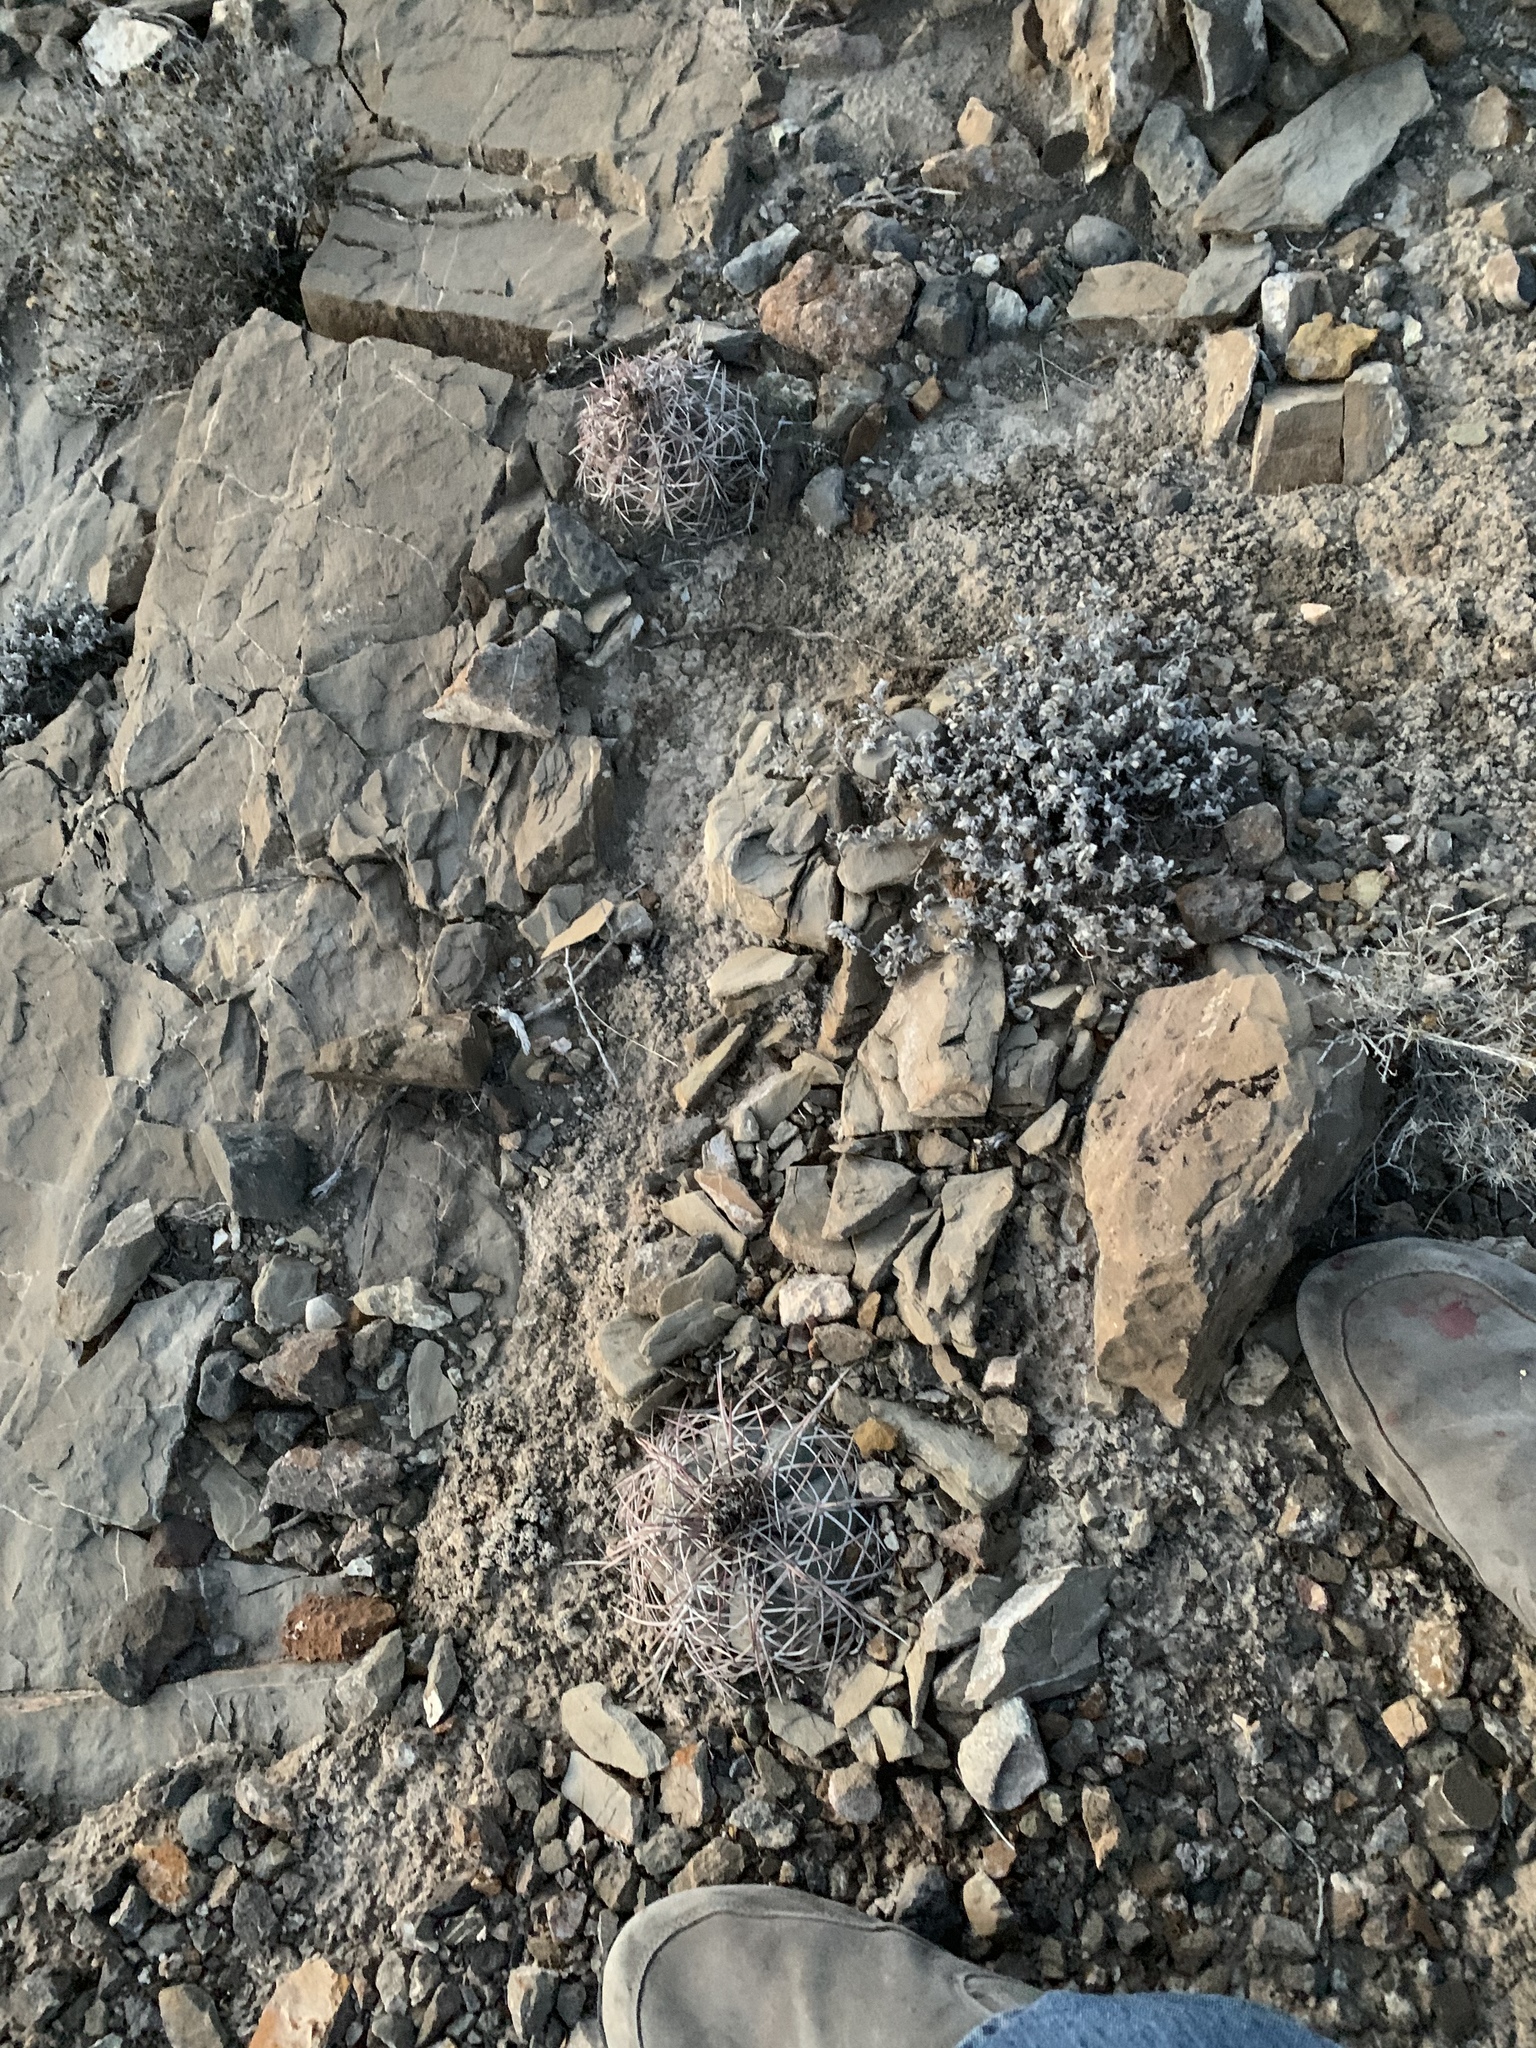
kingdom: Plantae
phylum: Tracheophyta
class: Magnoliopsida
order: Caryophyllales
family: Cactaceae
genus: Echinocactus
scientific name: Echinocactus horizonthalonius
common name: Devilshead
